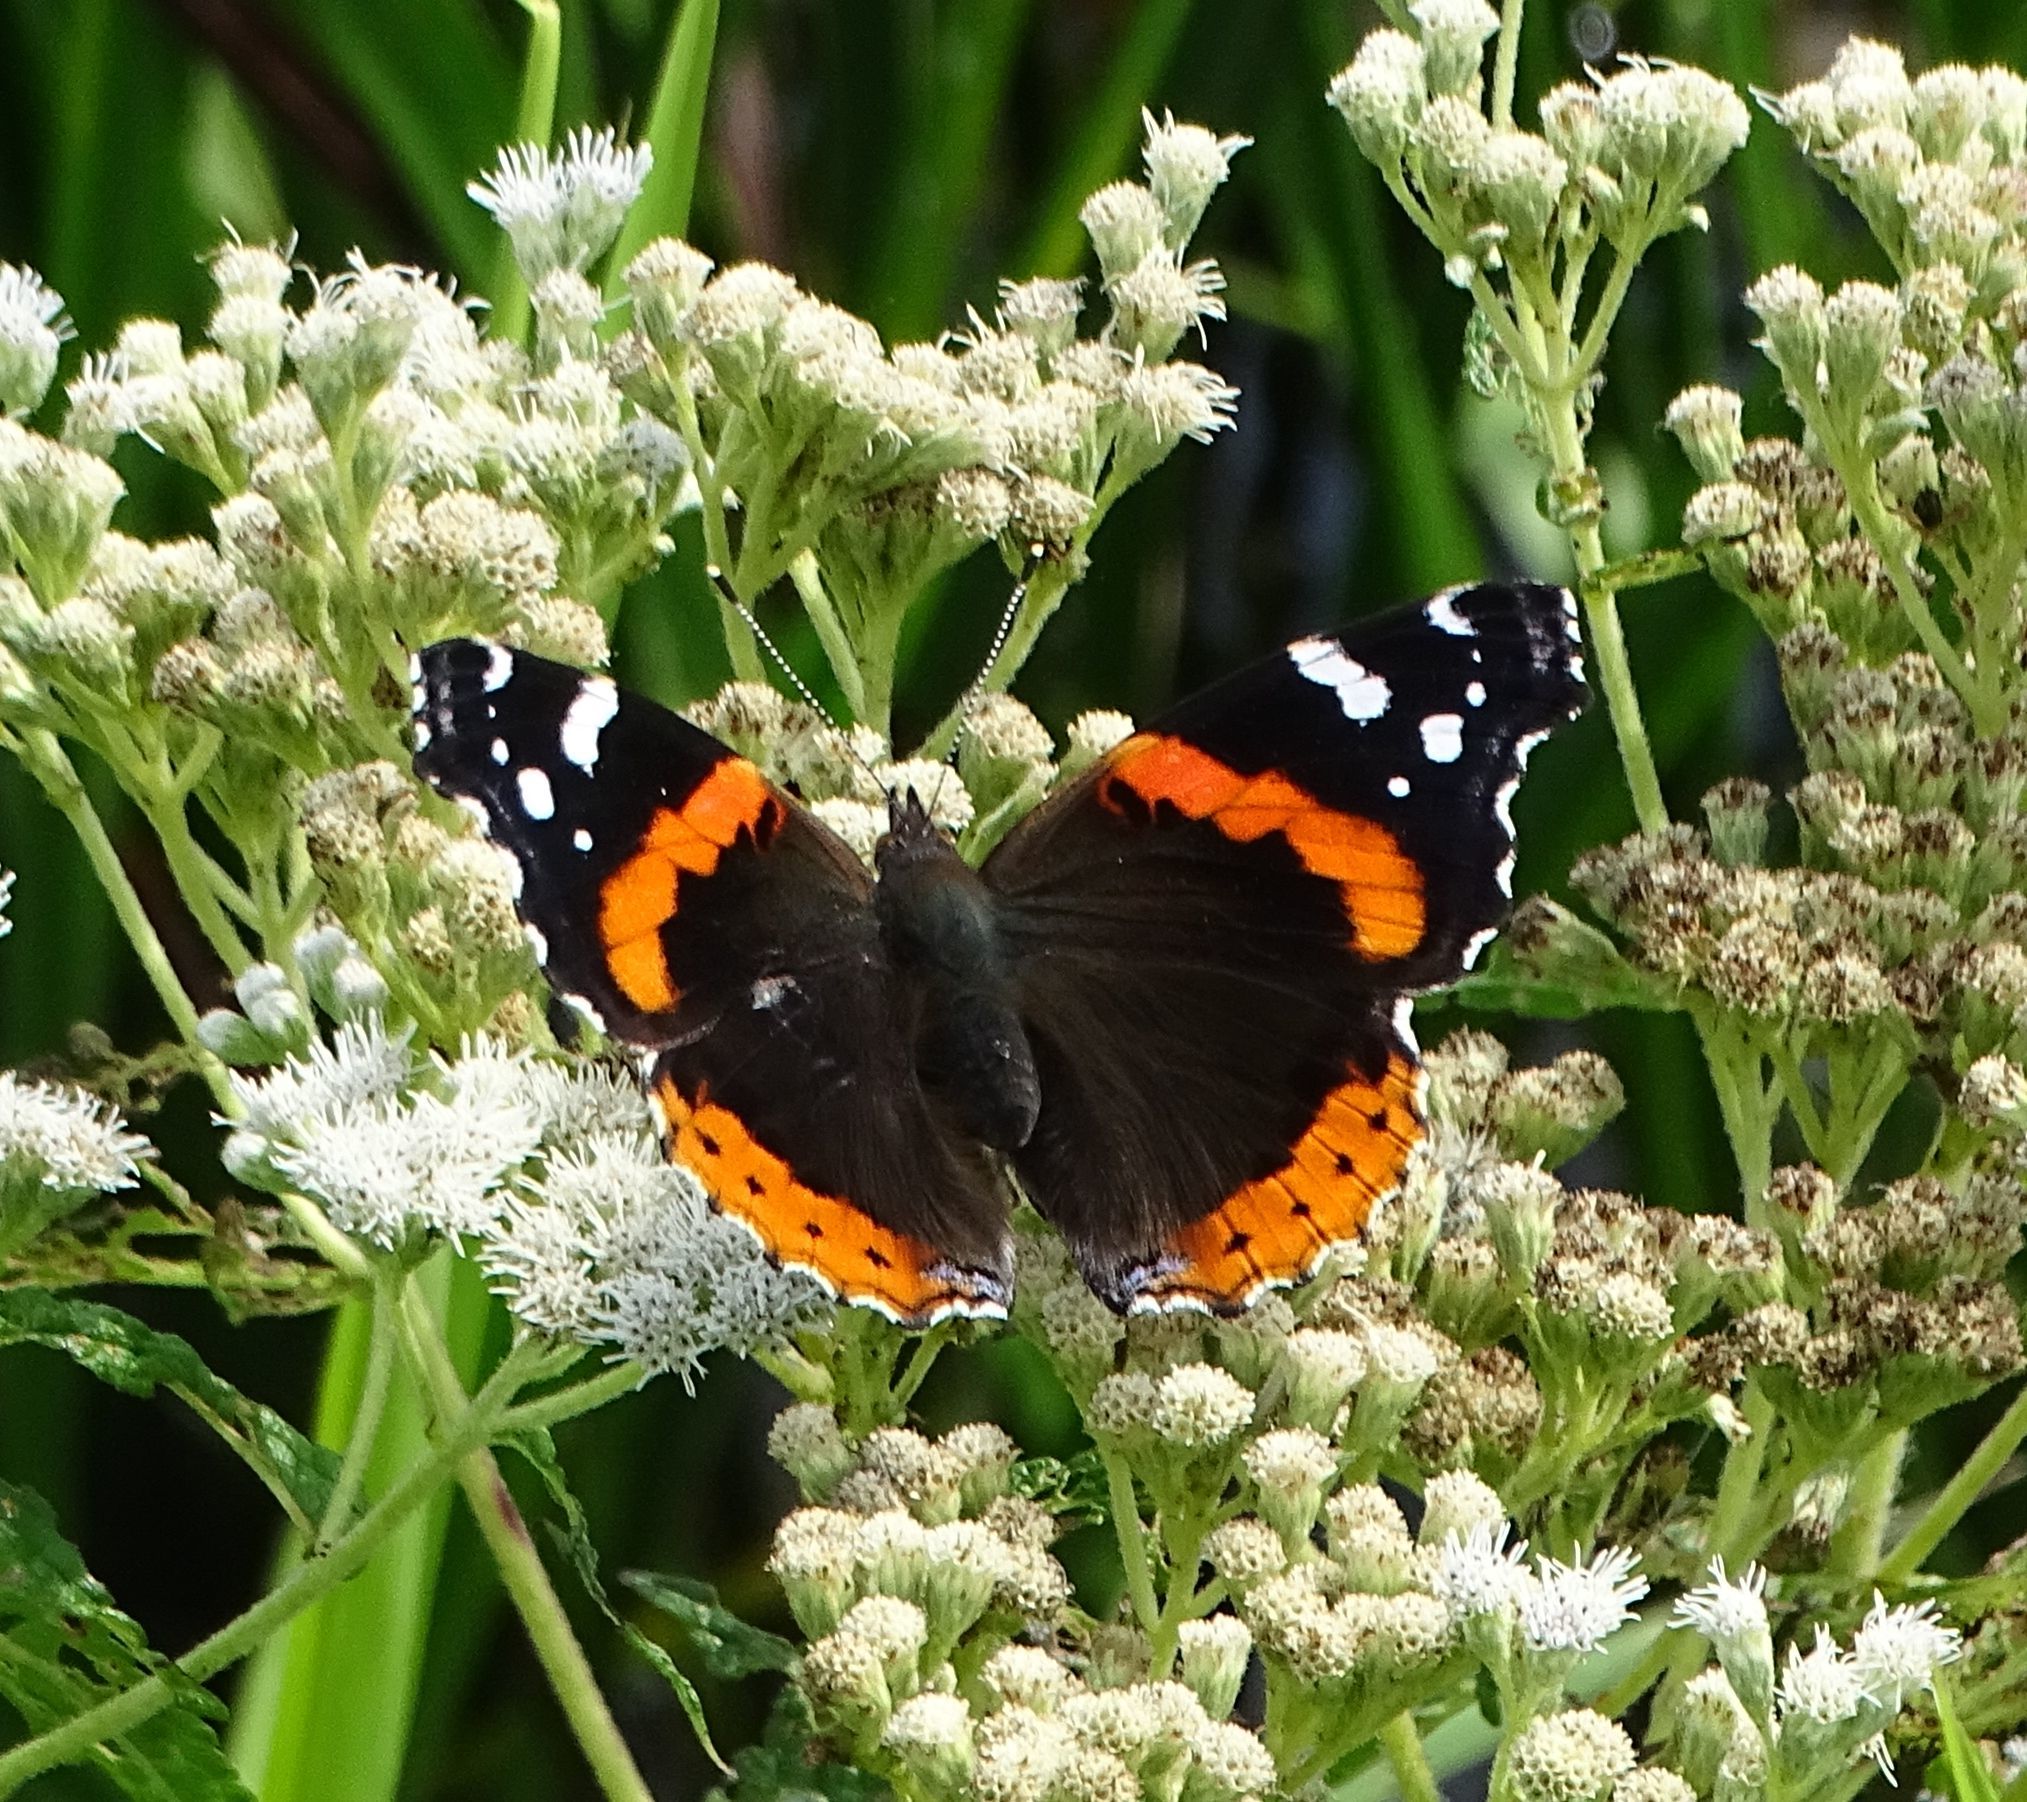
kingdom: Animalia
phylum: Arthropoda
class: Insecta
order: Lepidoptera
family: Nymphalidae
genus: Vanessa
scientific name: Vanessa atalanta
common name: Red admiral
